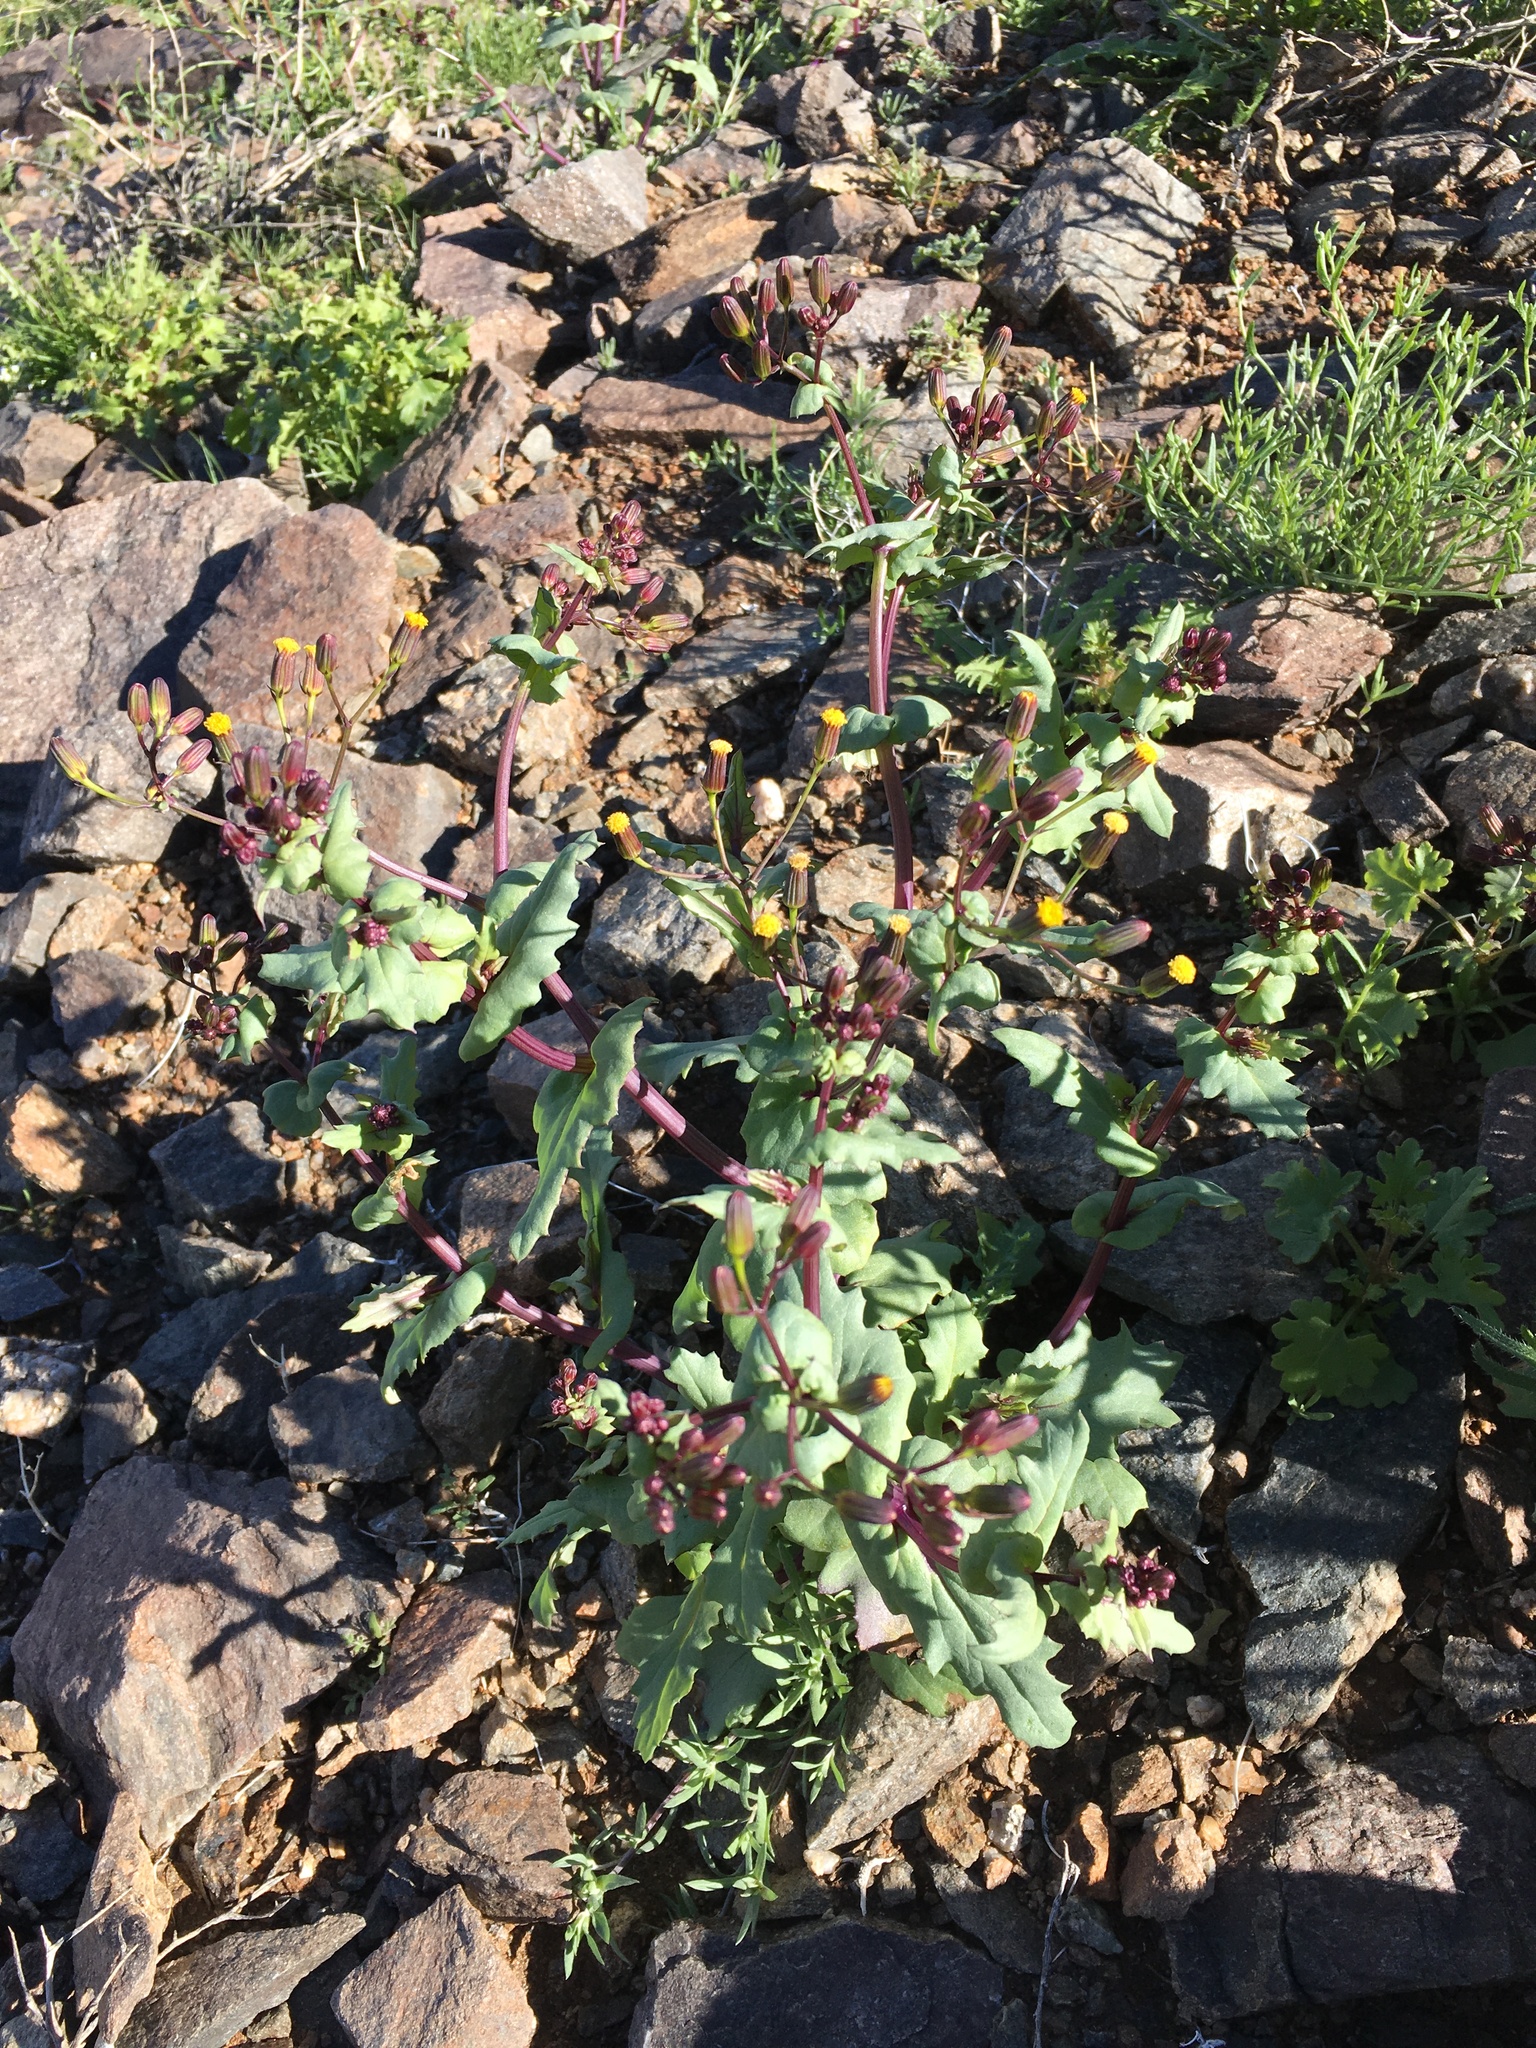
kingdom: Plantae
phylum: Tracheophyta
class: Magnoliopsida
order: Asterales
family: Asteraceae
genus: Senecio
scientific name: Senecio mohavensis
